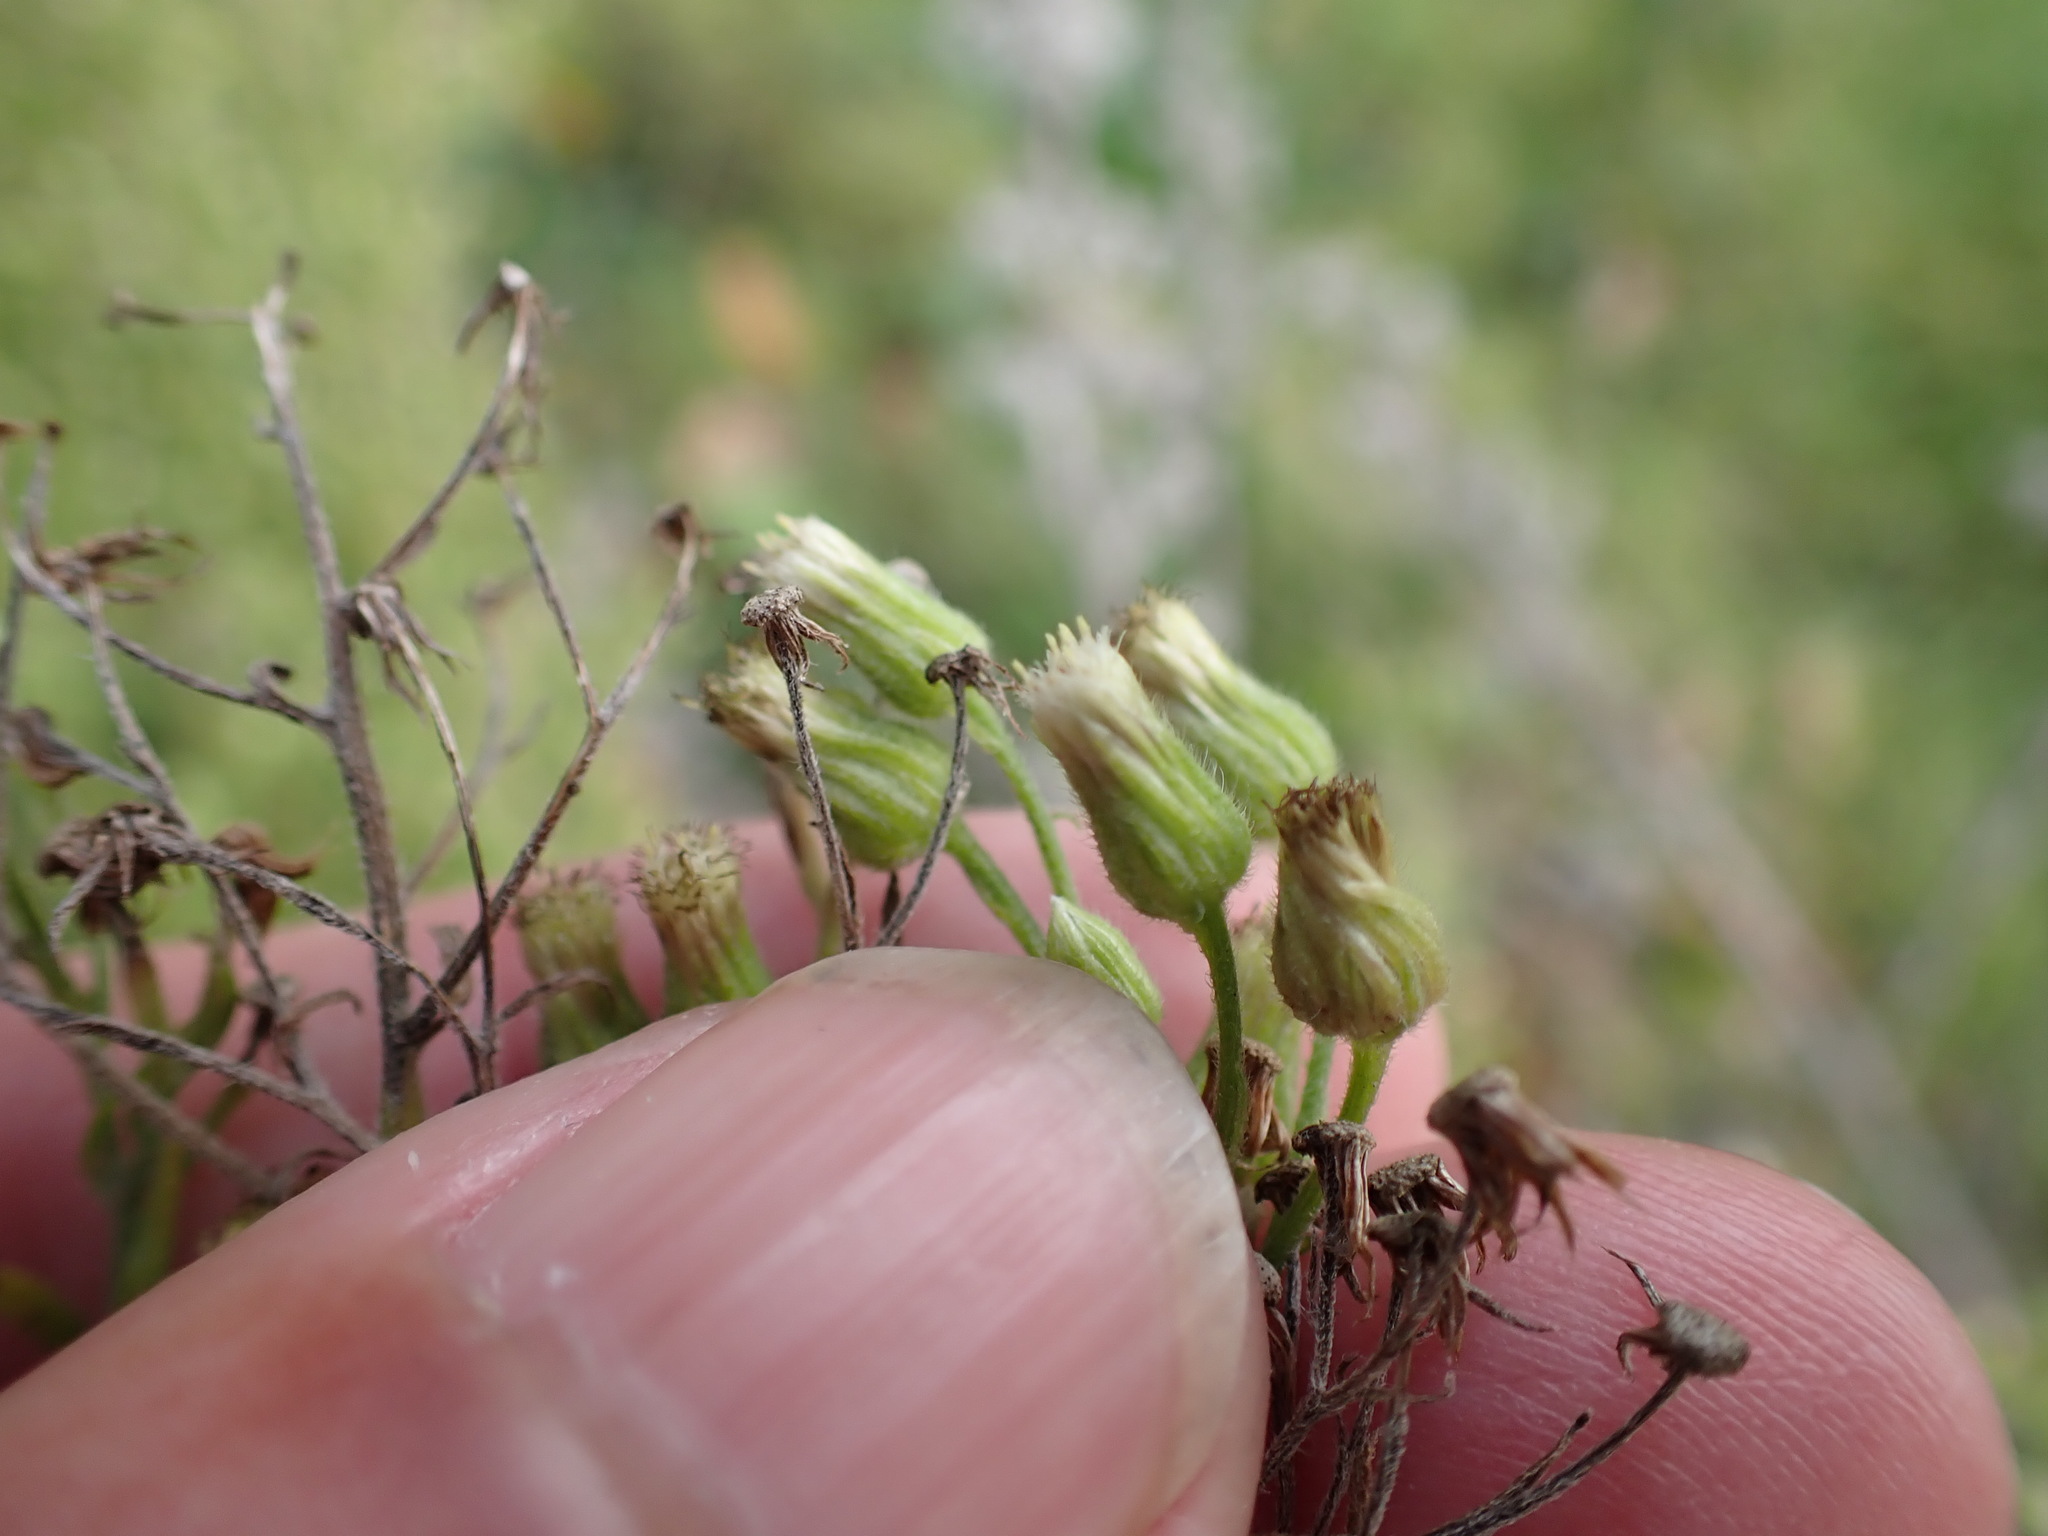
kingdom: Plantae
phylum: Tracheophyta
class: Magnoliopsida
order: Asterales
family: Asteraceae
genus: Erigeron
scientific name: Erigeron sumatrensis
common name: Daisy
